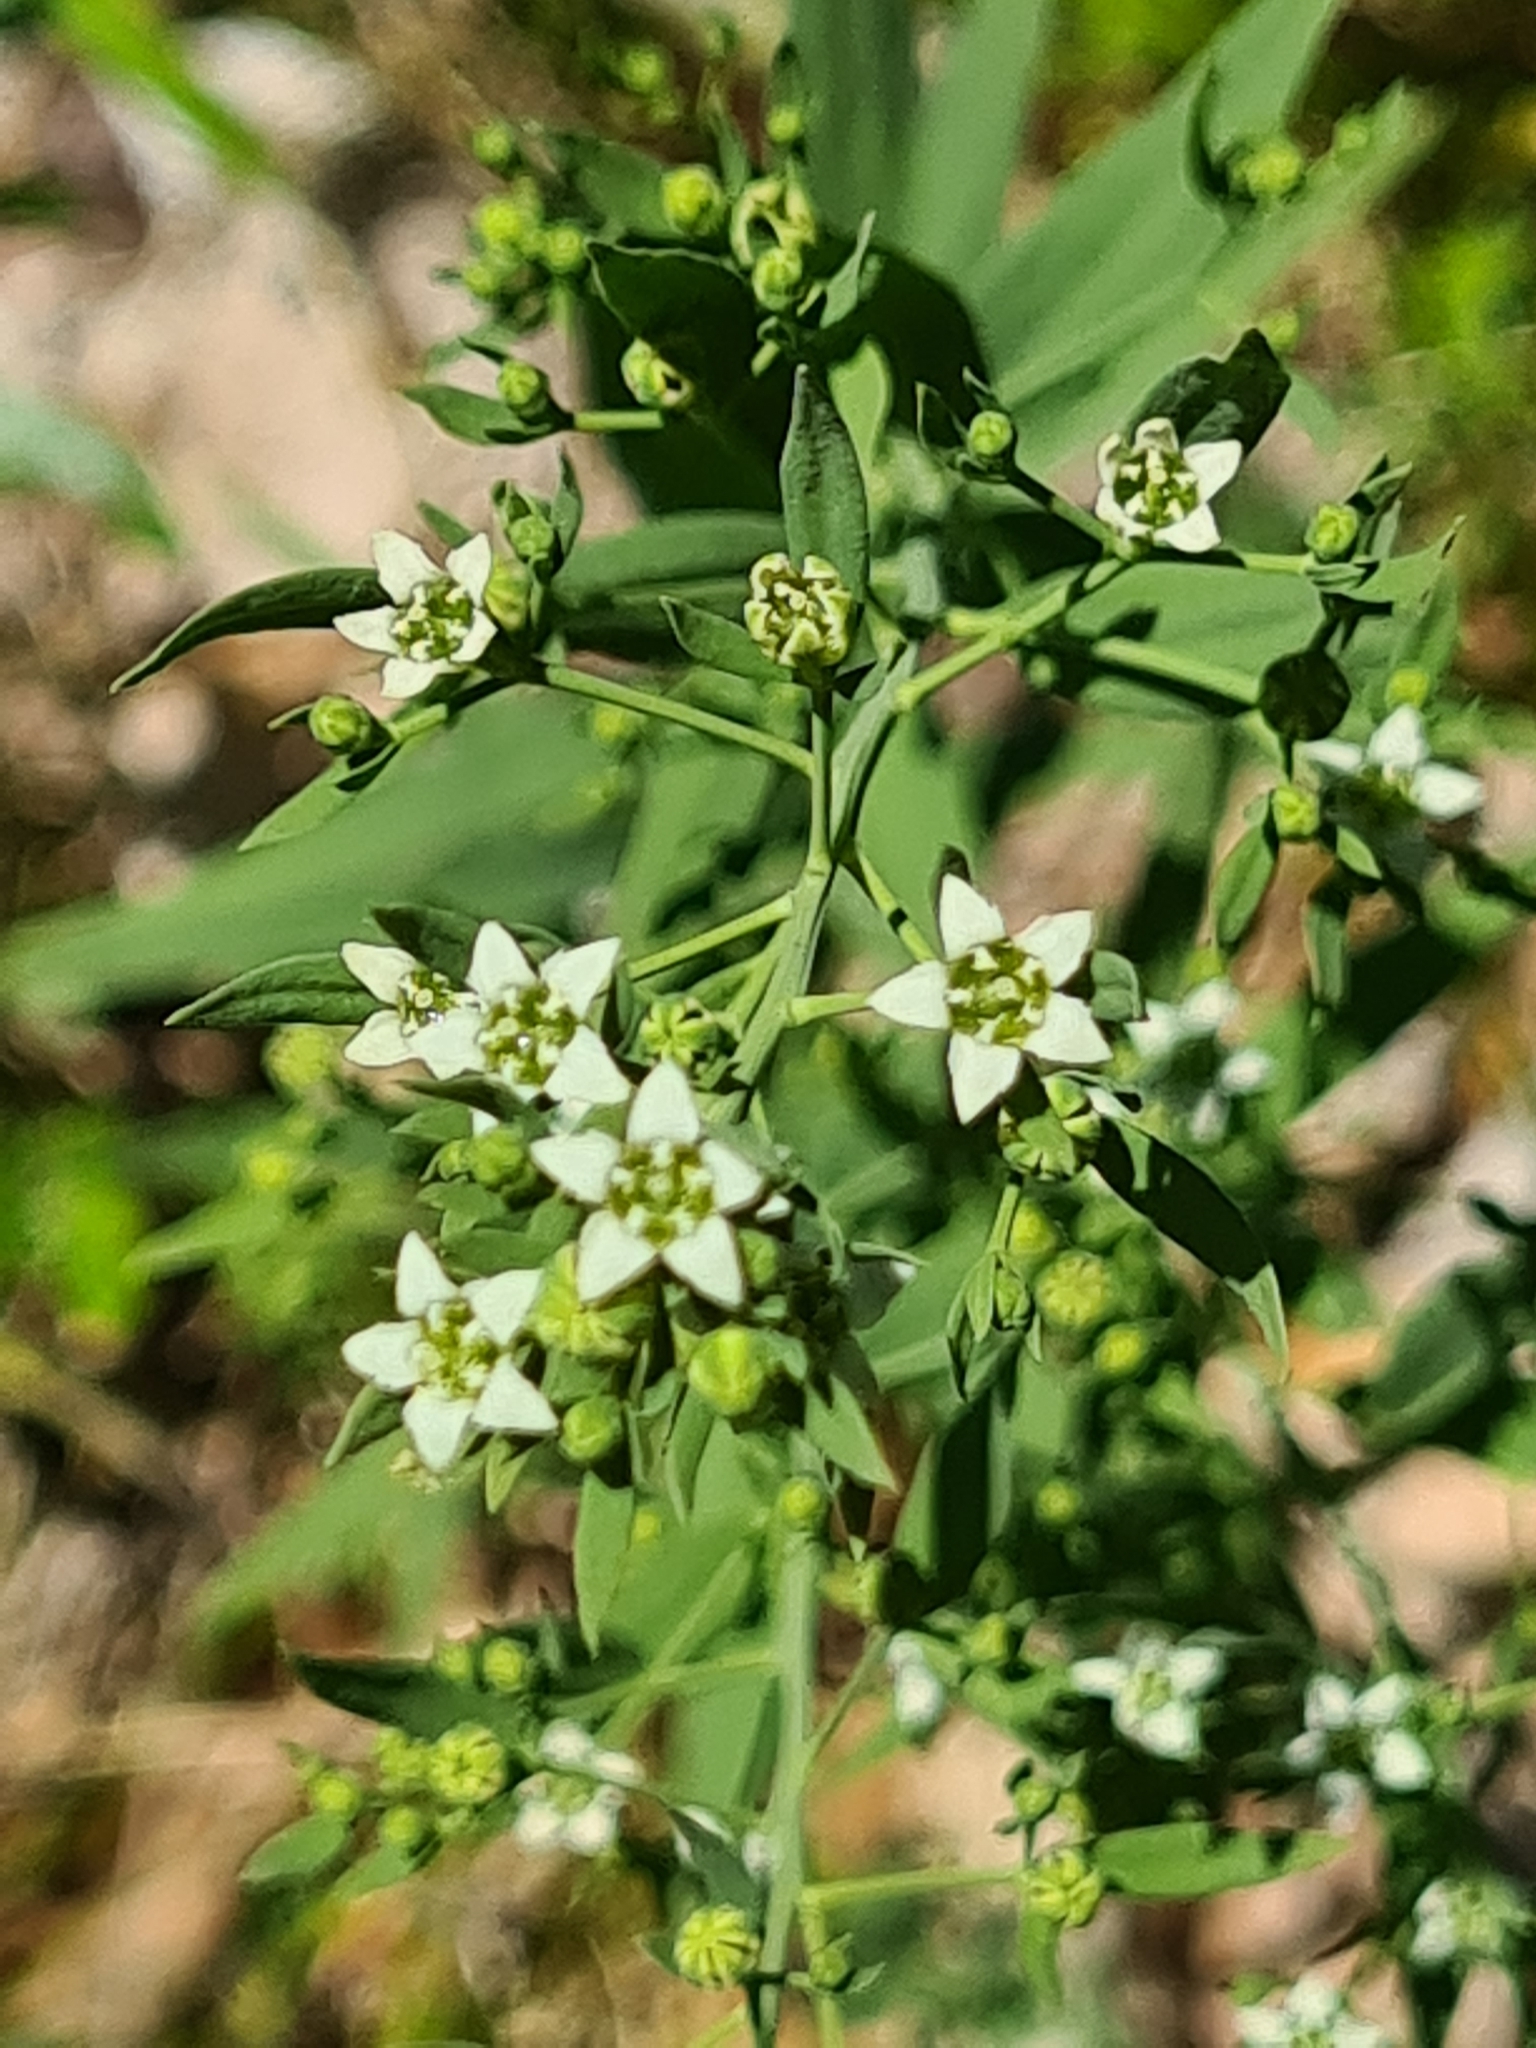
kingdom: Plantae
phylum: Tracheophyta
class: Magnoliopsida
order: Santalales
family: Thesiaceae
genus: Thesium
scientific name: Thesium bavarum
